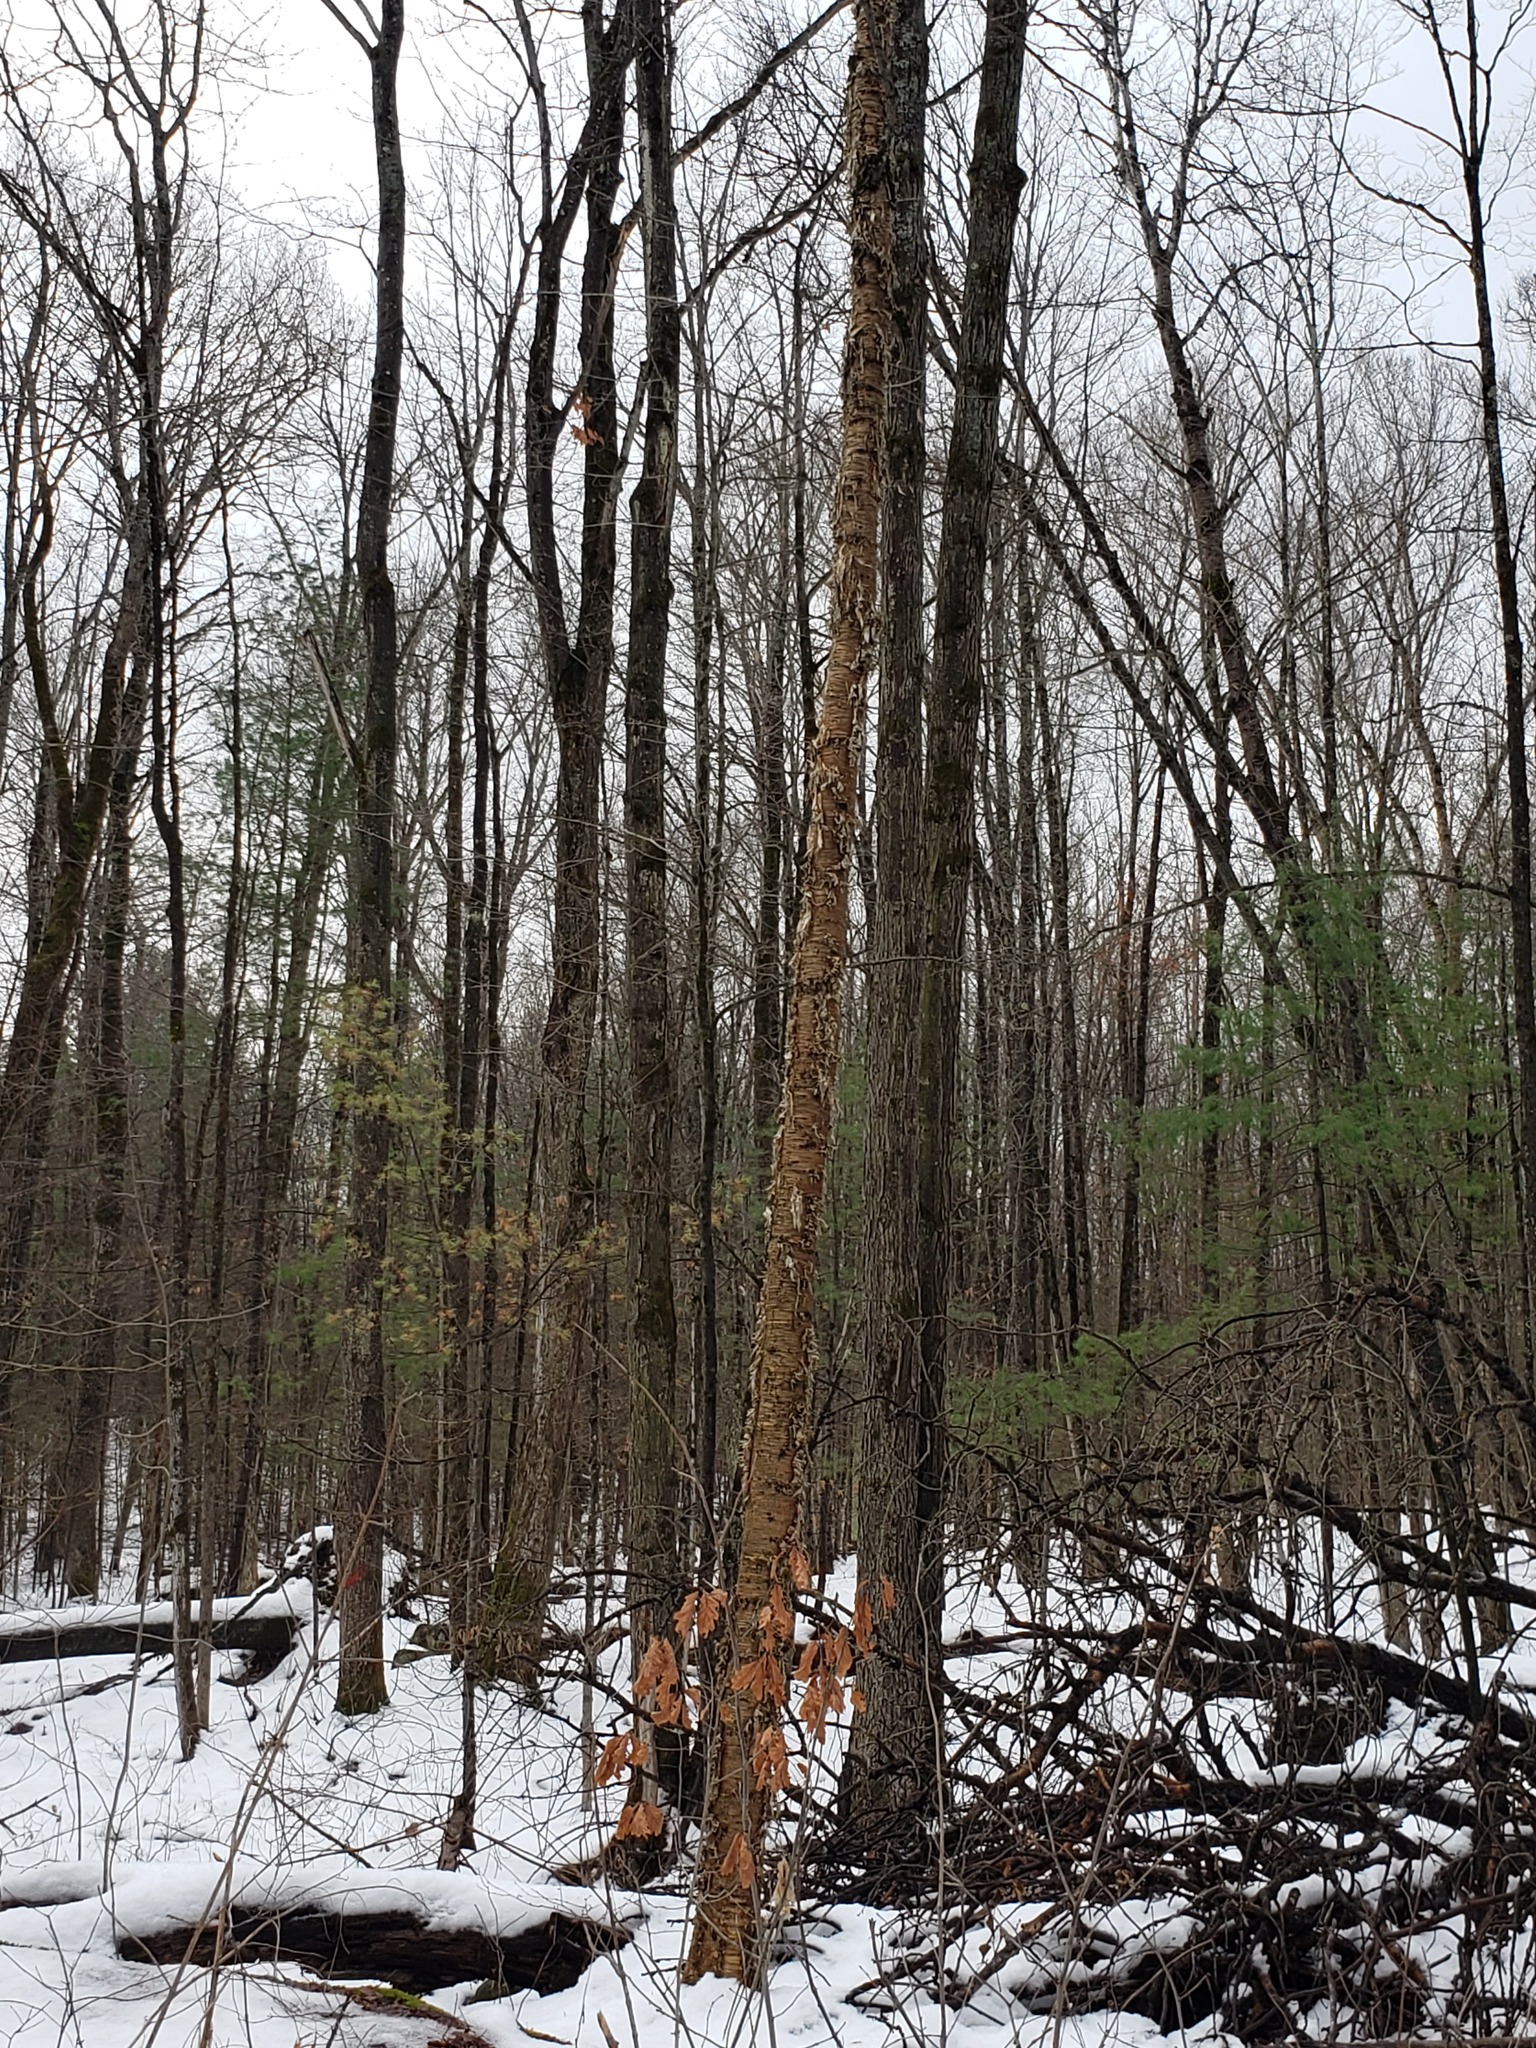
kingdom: Plantae
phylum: Tracheophyta
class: Magnoliopsida
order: Fagales
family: Betulaceae
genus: Betula
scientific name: Betula alleghaniensis
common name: Yellow birch
